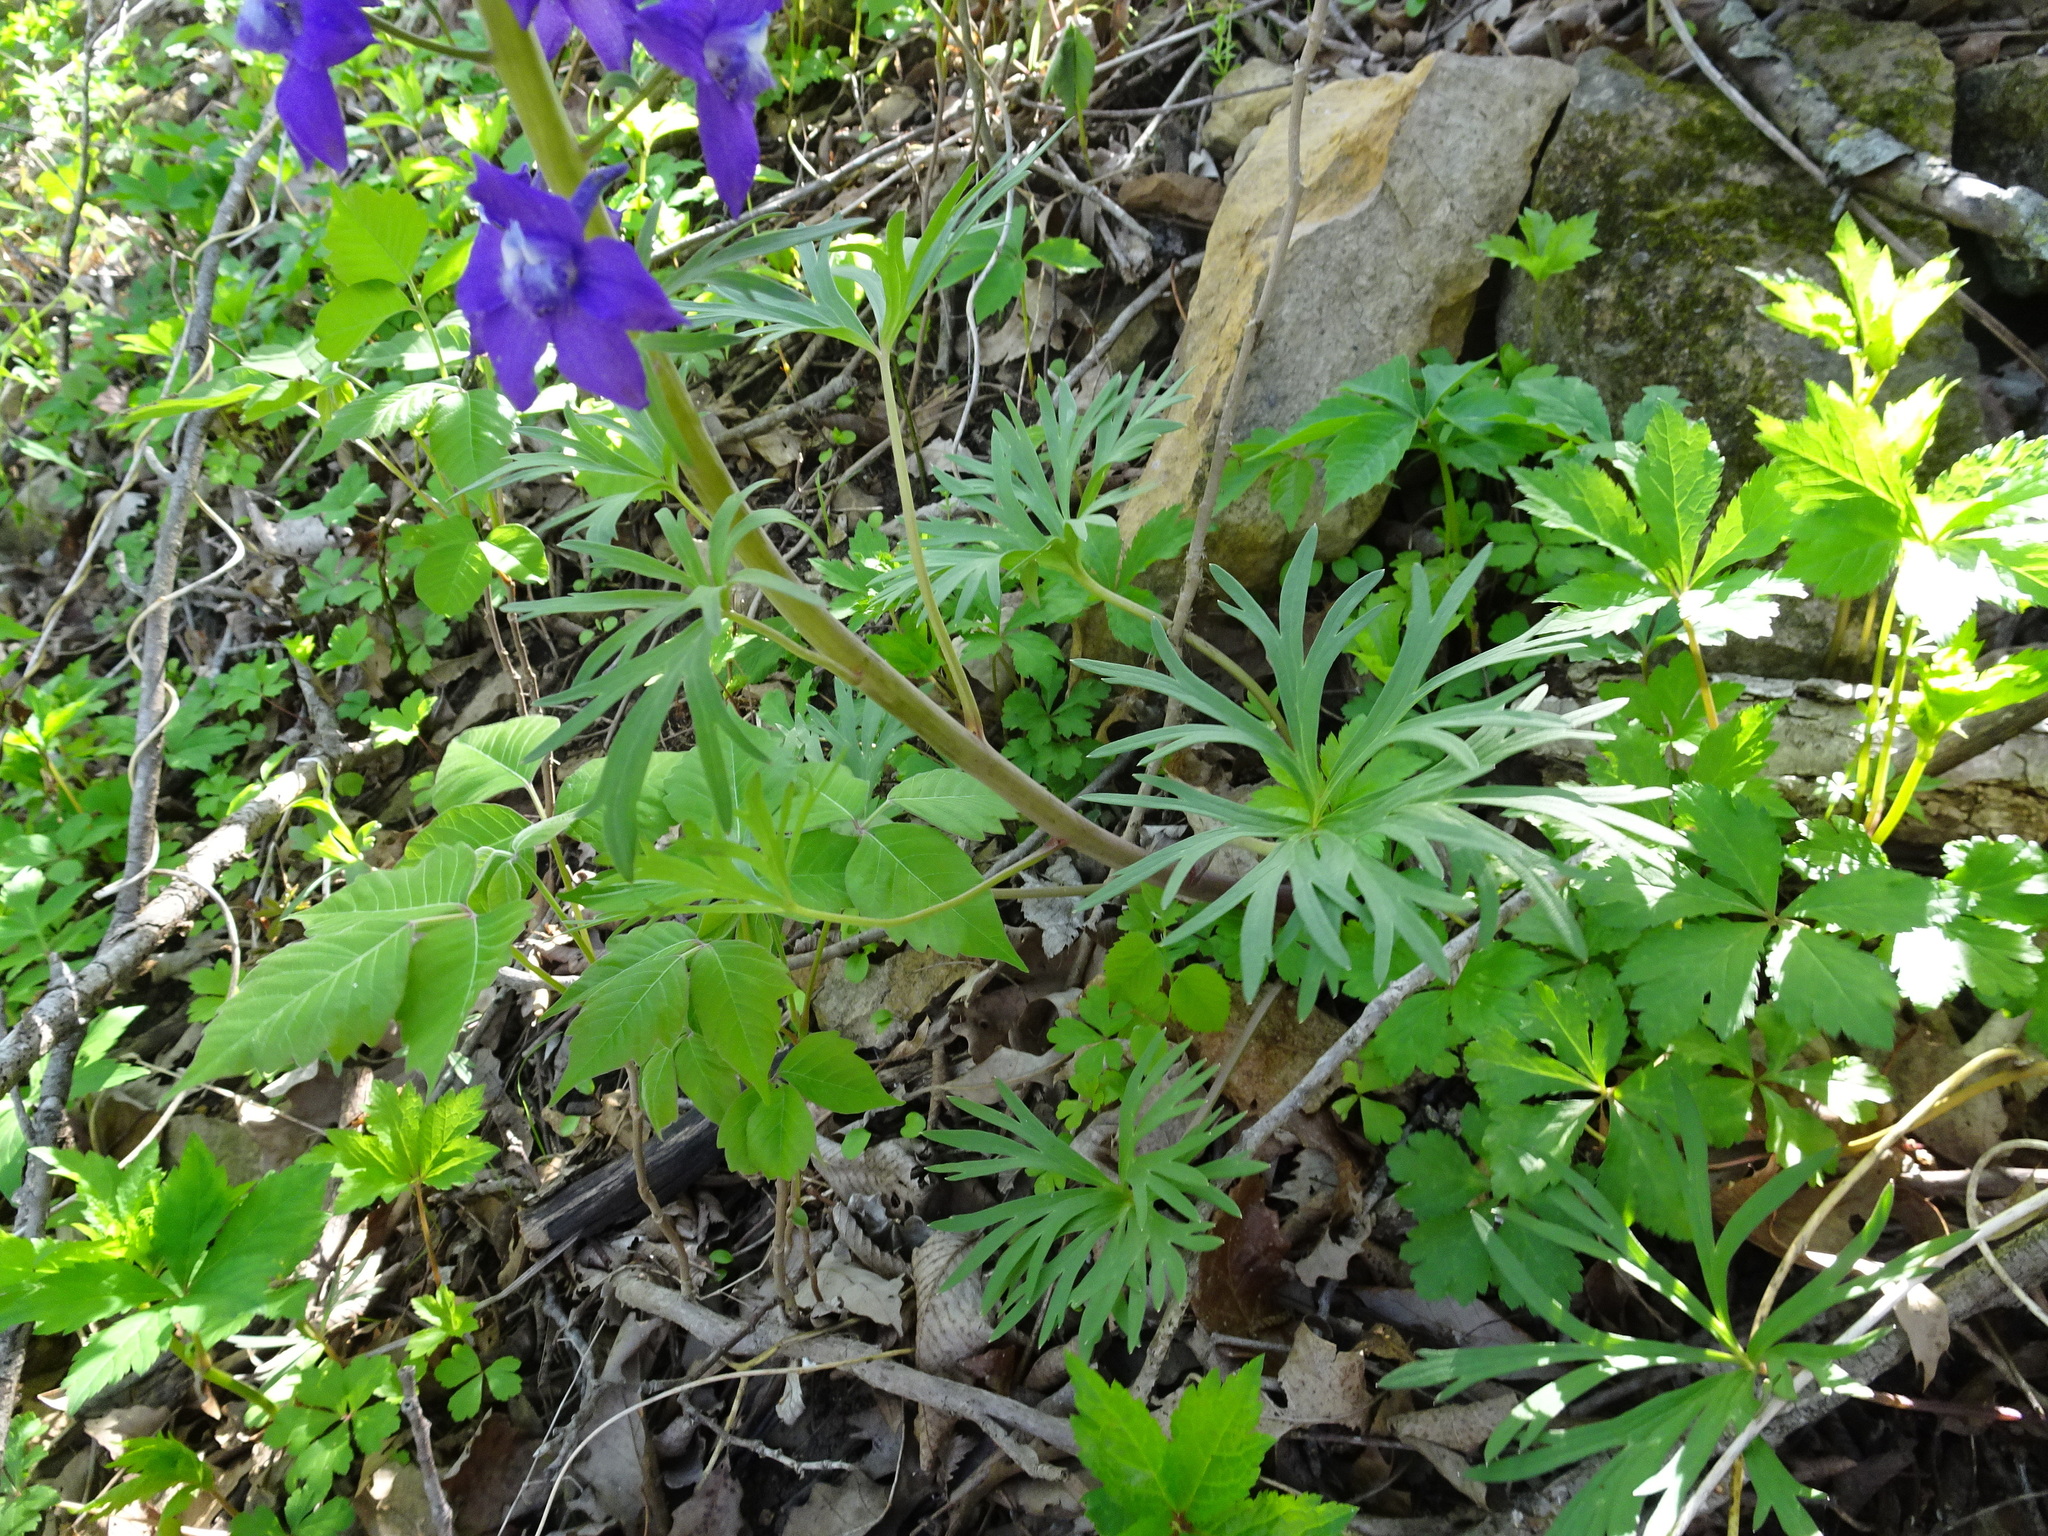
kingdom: Plantae
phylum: Tracheophyta
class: Magnoliopsida
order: Ranunculales
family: Ranunculaceae
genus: Delphinium
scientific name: Delphinium tricorne
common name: Dwarf larkspur
